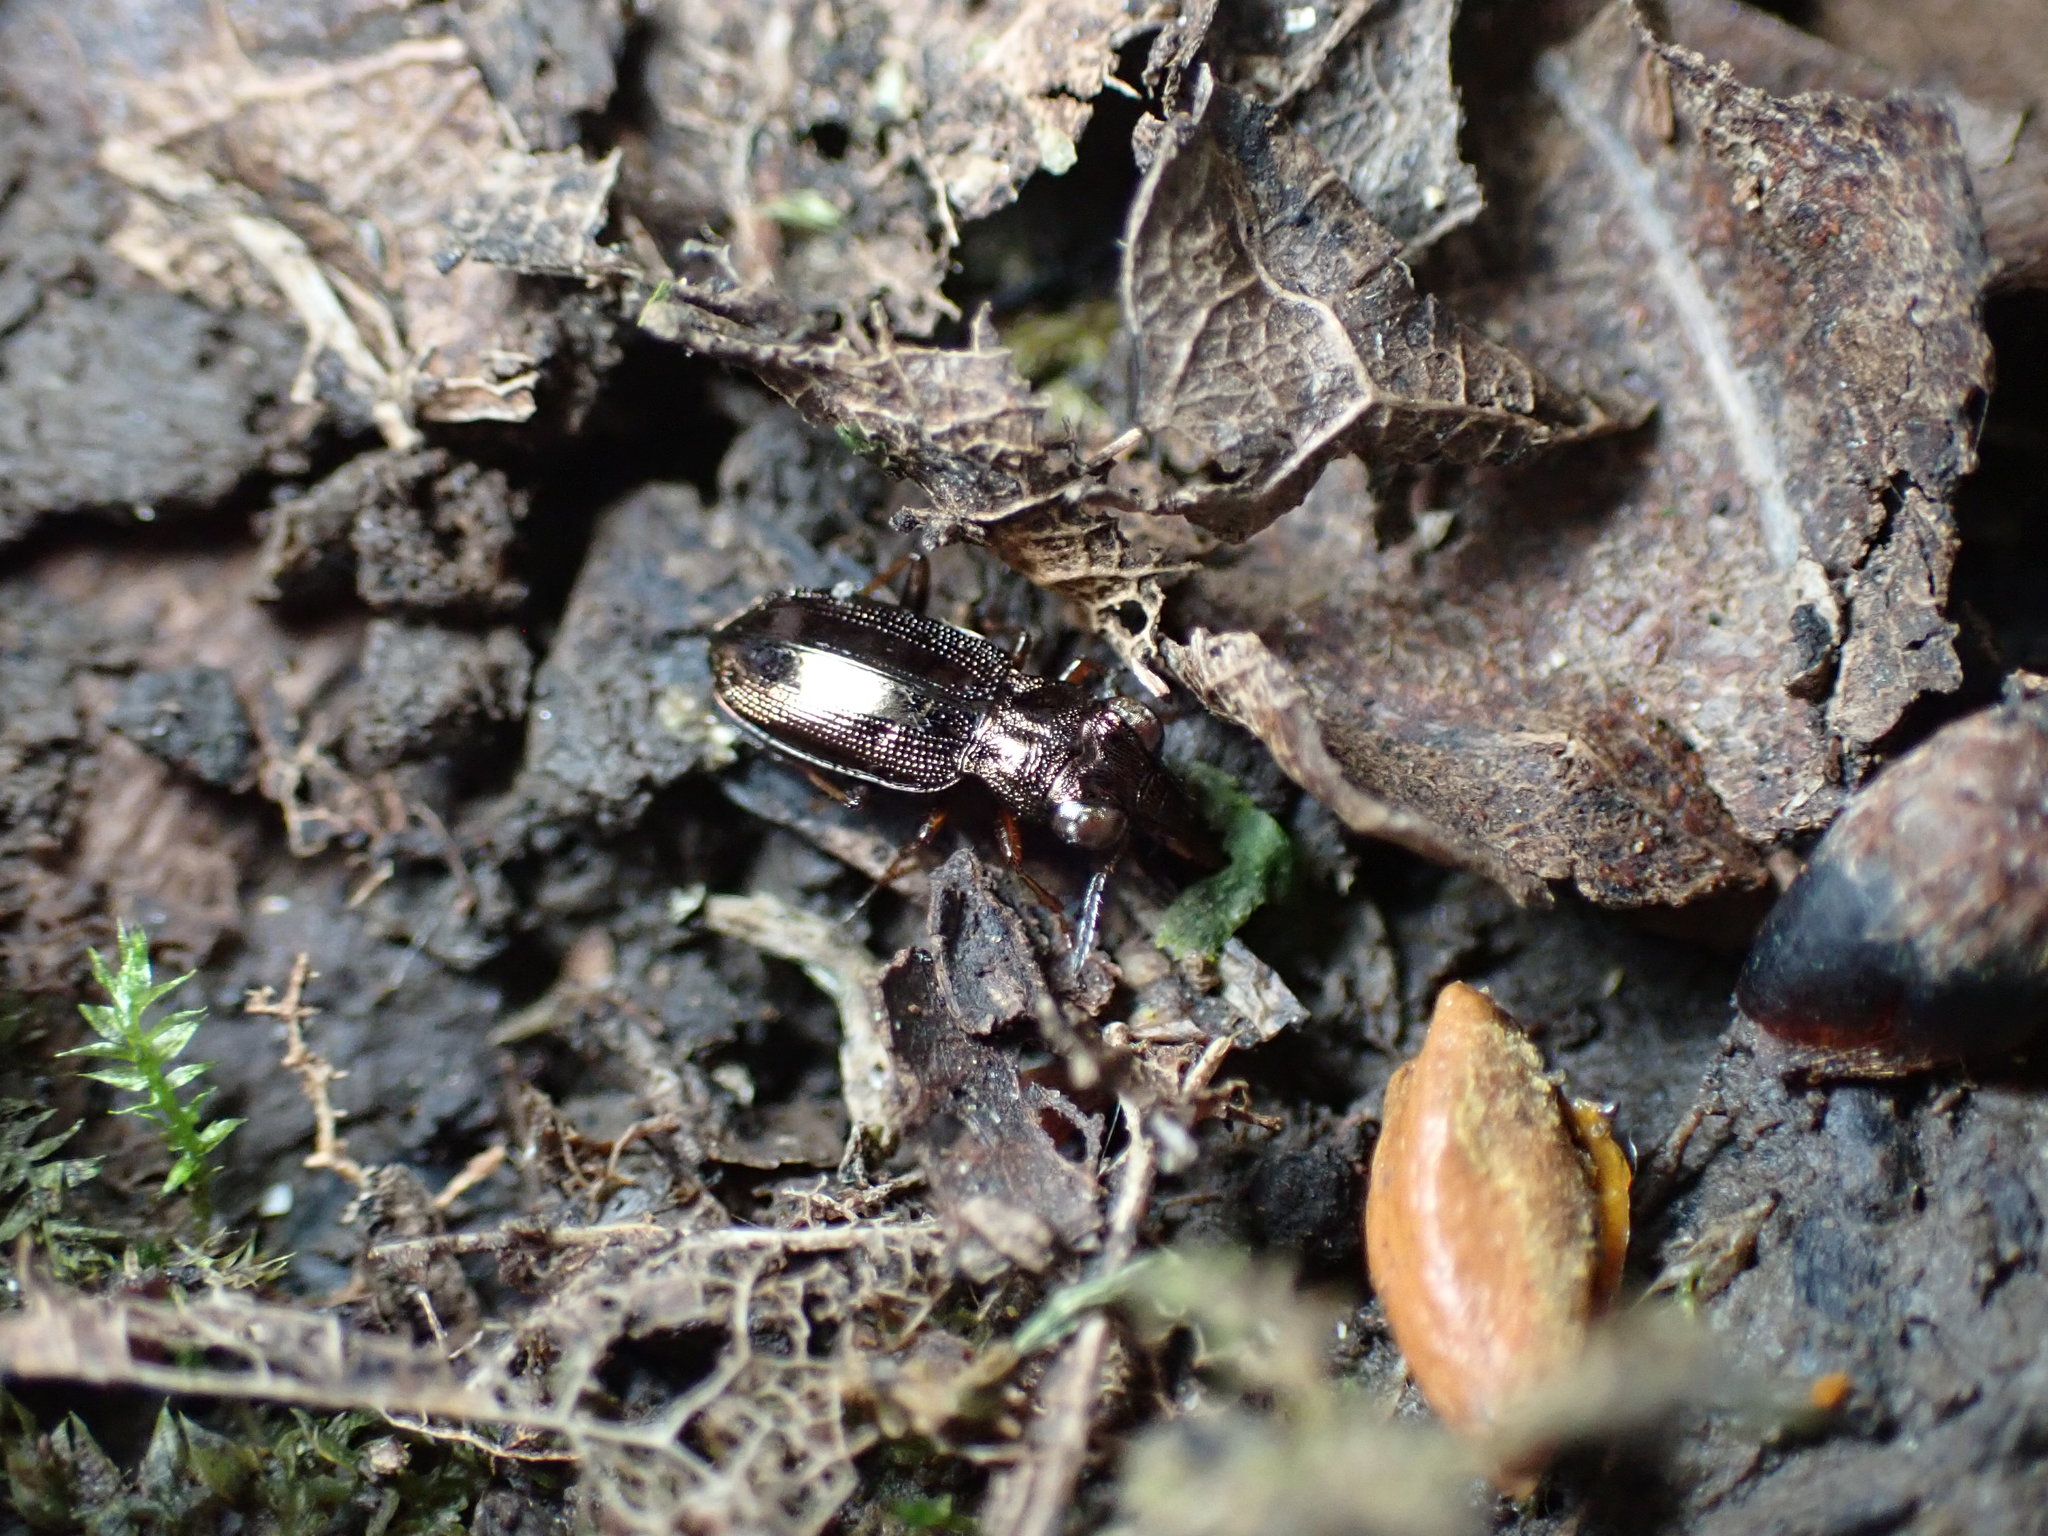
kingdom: Animalia
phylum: Arthropoda
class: Insecta
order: Coleoptera
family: Carabidae
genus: Notiophilus
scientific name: Notiophilus rufipes
